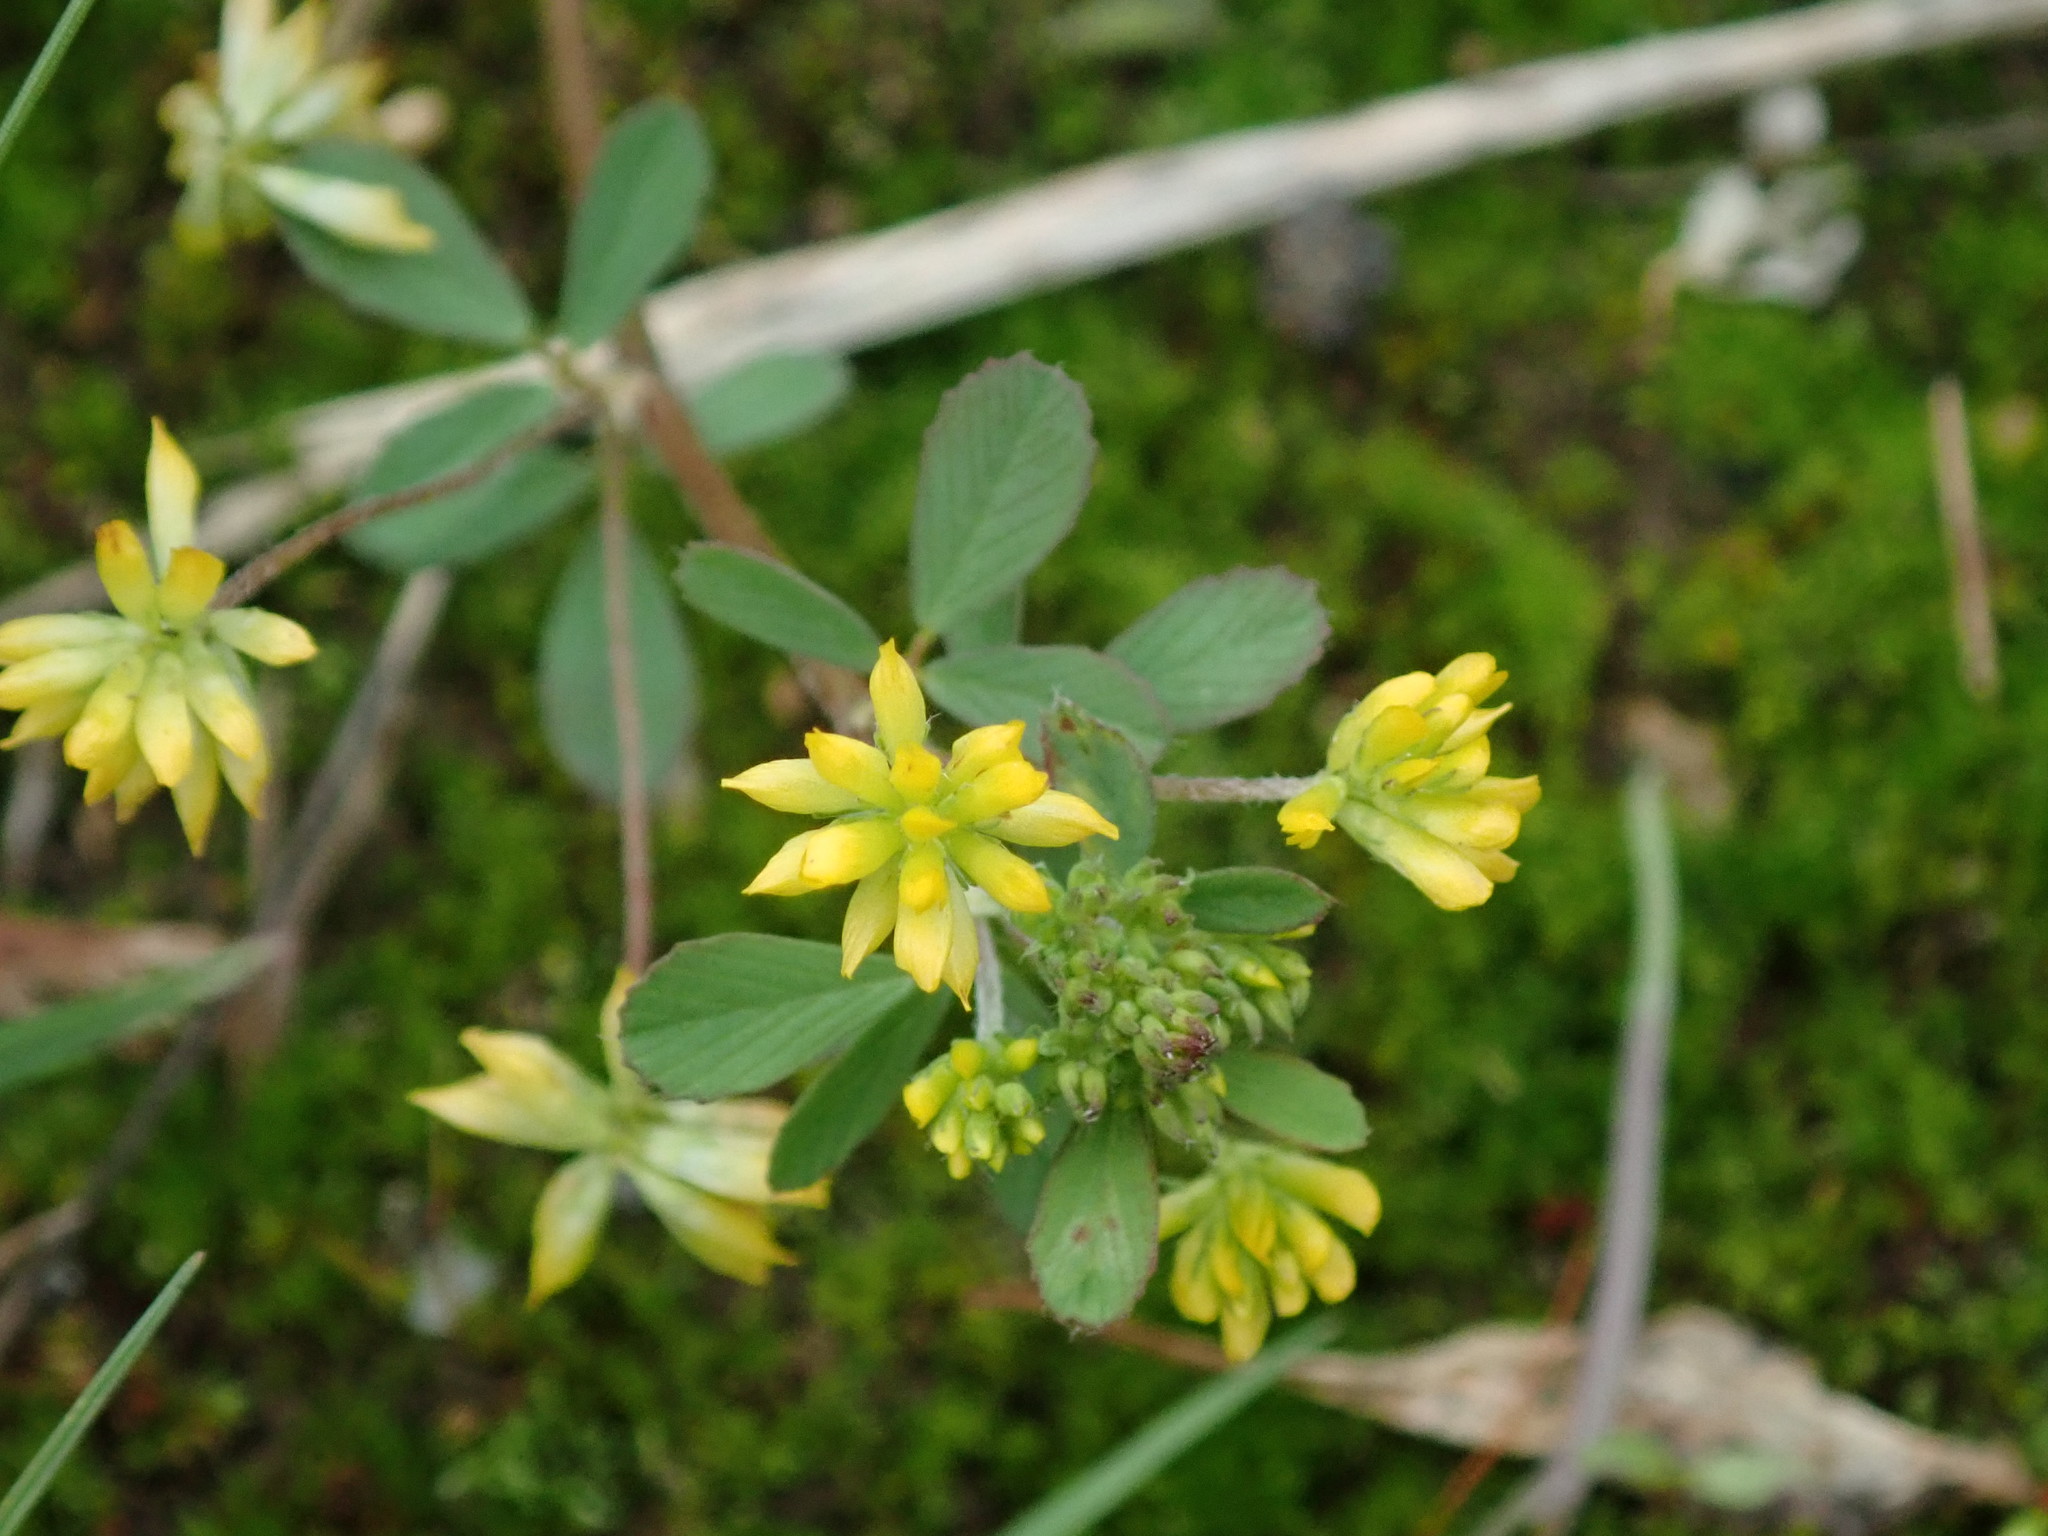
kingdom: Plantae
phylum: Tracheophyta
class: Magnoliopsida
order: Fabales
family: Fabaceae
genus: Trifolium
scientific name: Trifolium dubium
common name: Suckling clover
